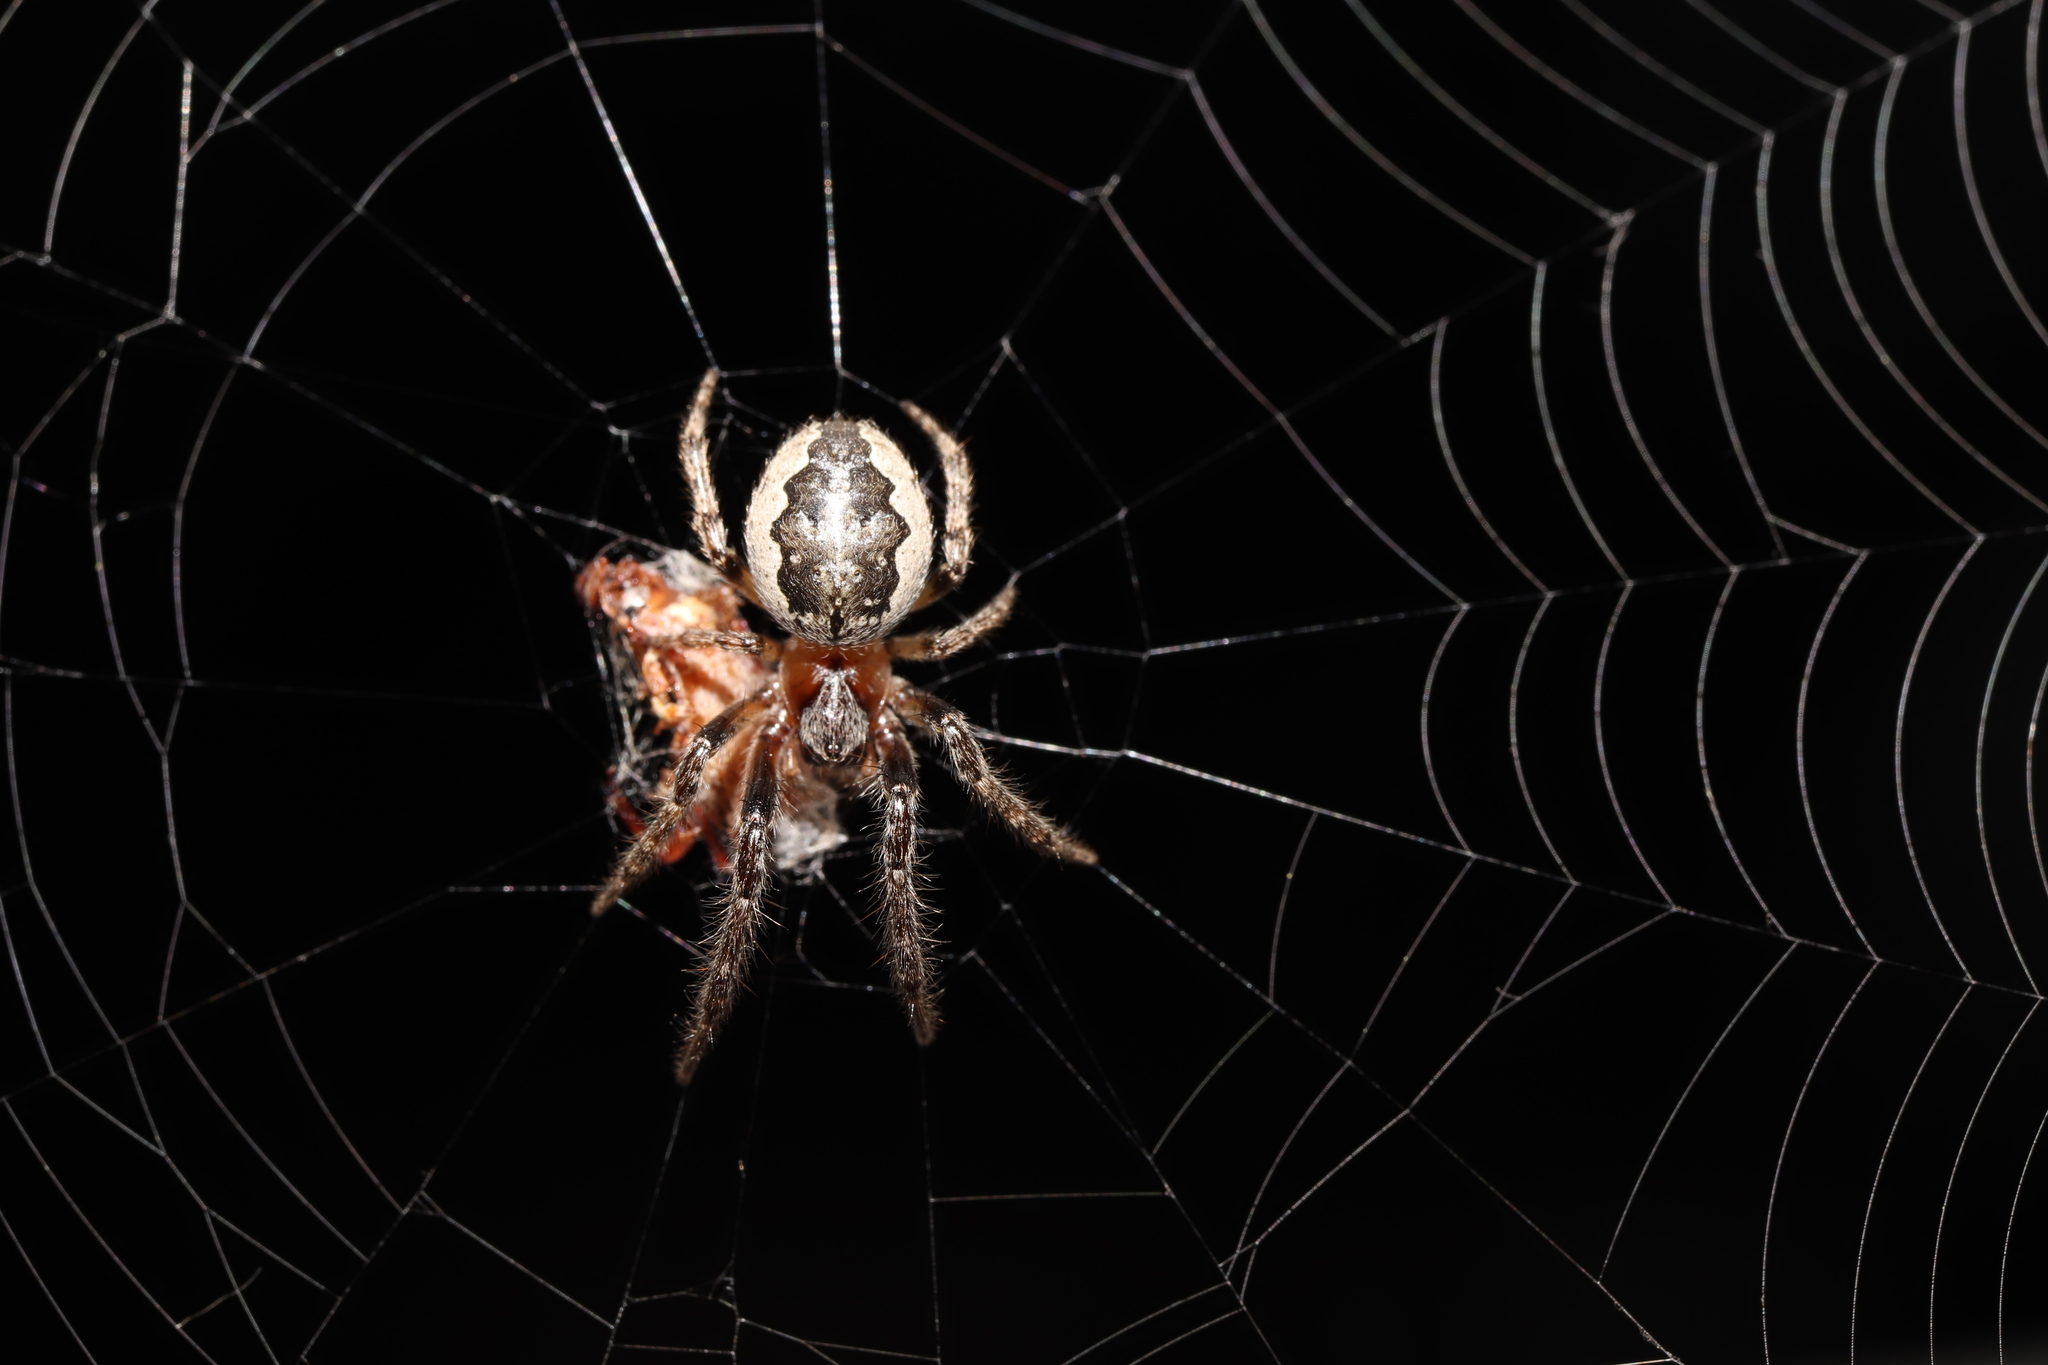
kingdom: Animalia
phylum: Arthropoda
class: Arachnida
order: Araneae
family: Araneidae
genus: Yaginumia
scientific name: Yaginumia sia
